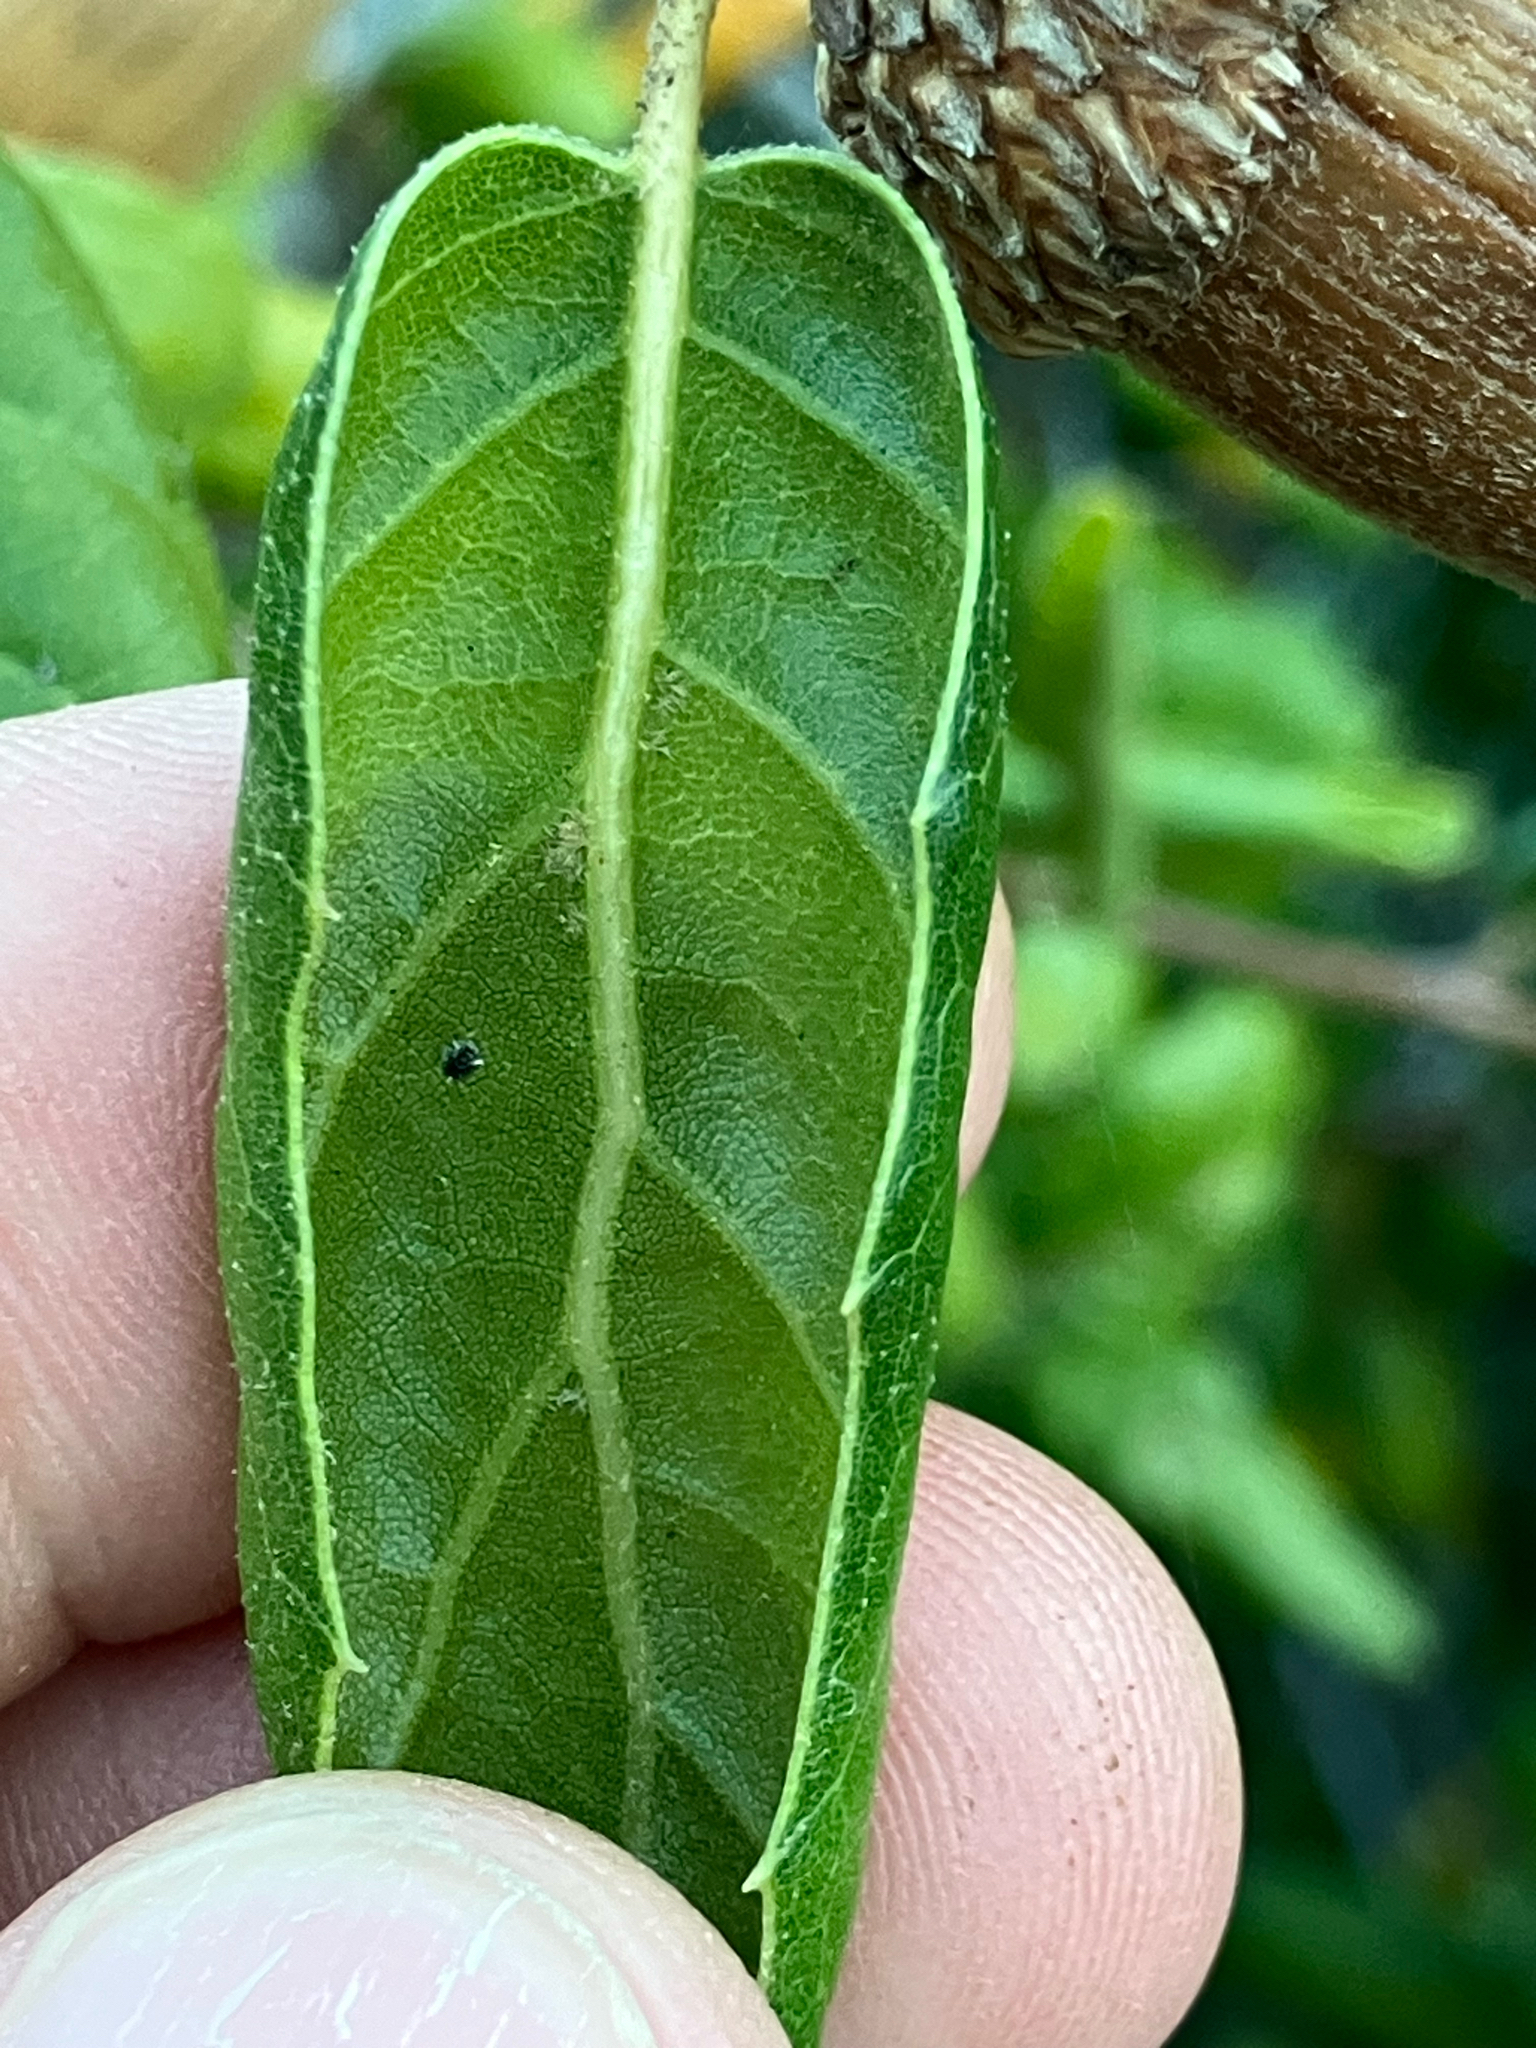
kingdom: Plantae
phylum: Tracheophyta
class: Magnoliopsida
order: Fagales
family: Fagaceae
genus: Quercus
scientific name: Quercus agrifolia
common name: California live oak
